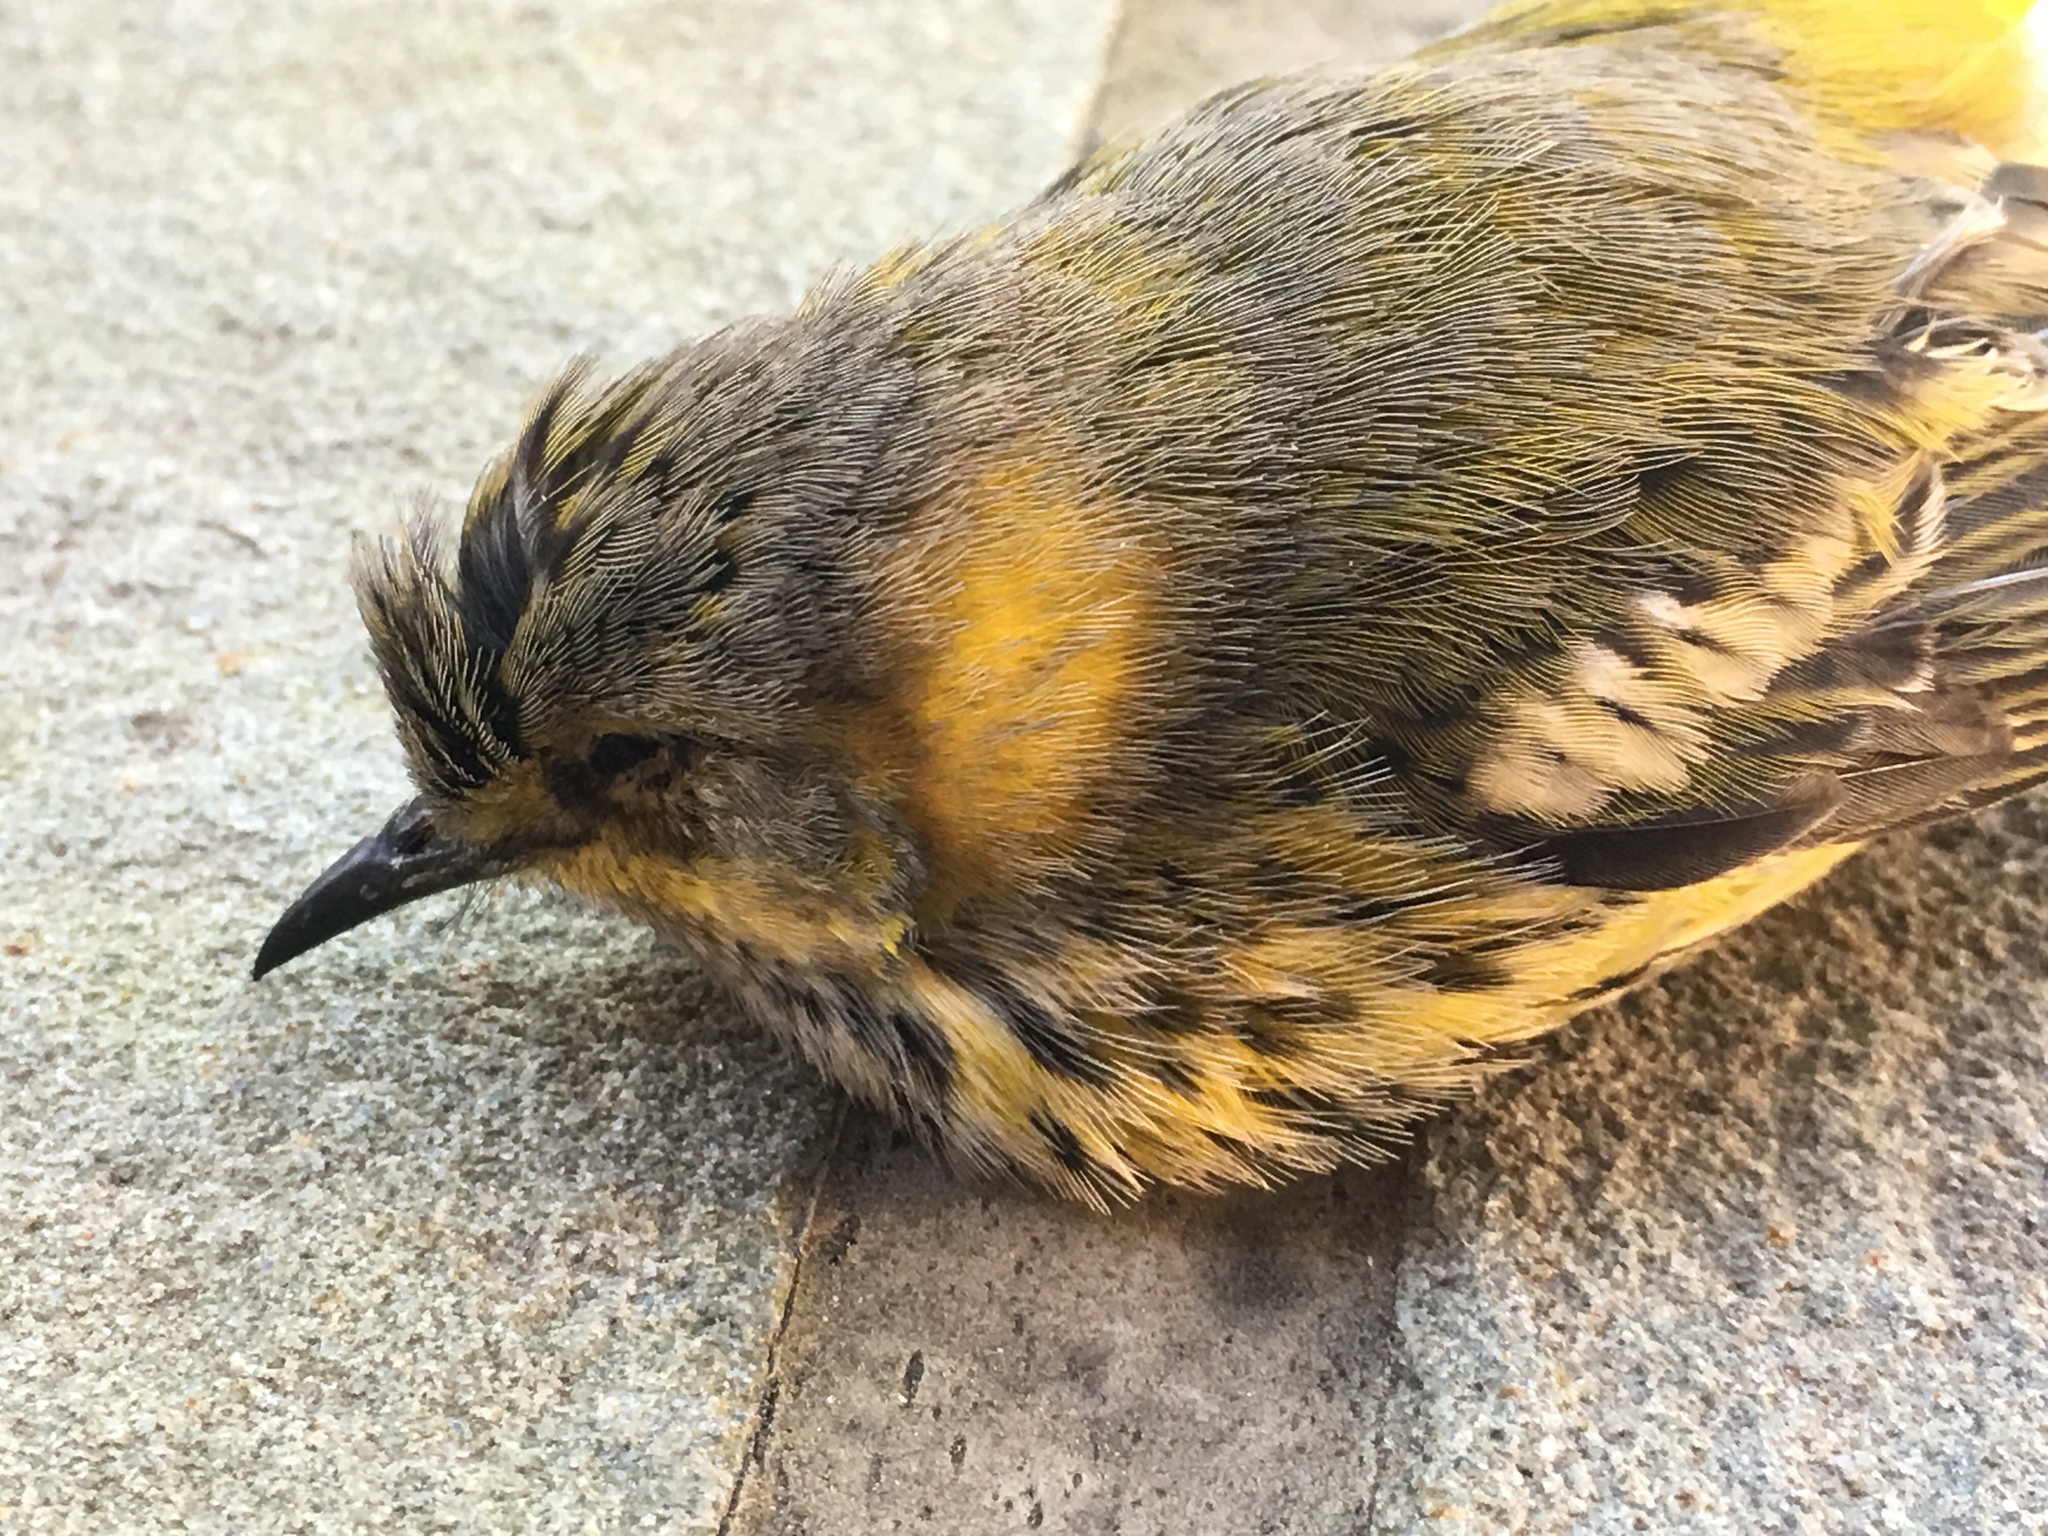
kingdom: Animalia
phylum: Chordata
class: Aves
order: Passeriformes
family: Parulidae
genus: Setophaga
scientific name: Setophaga tigrina
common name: Cape may warbler
